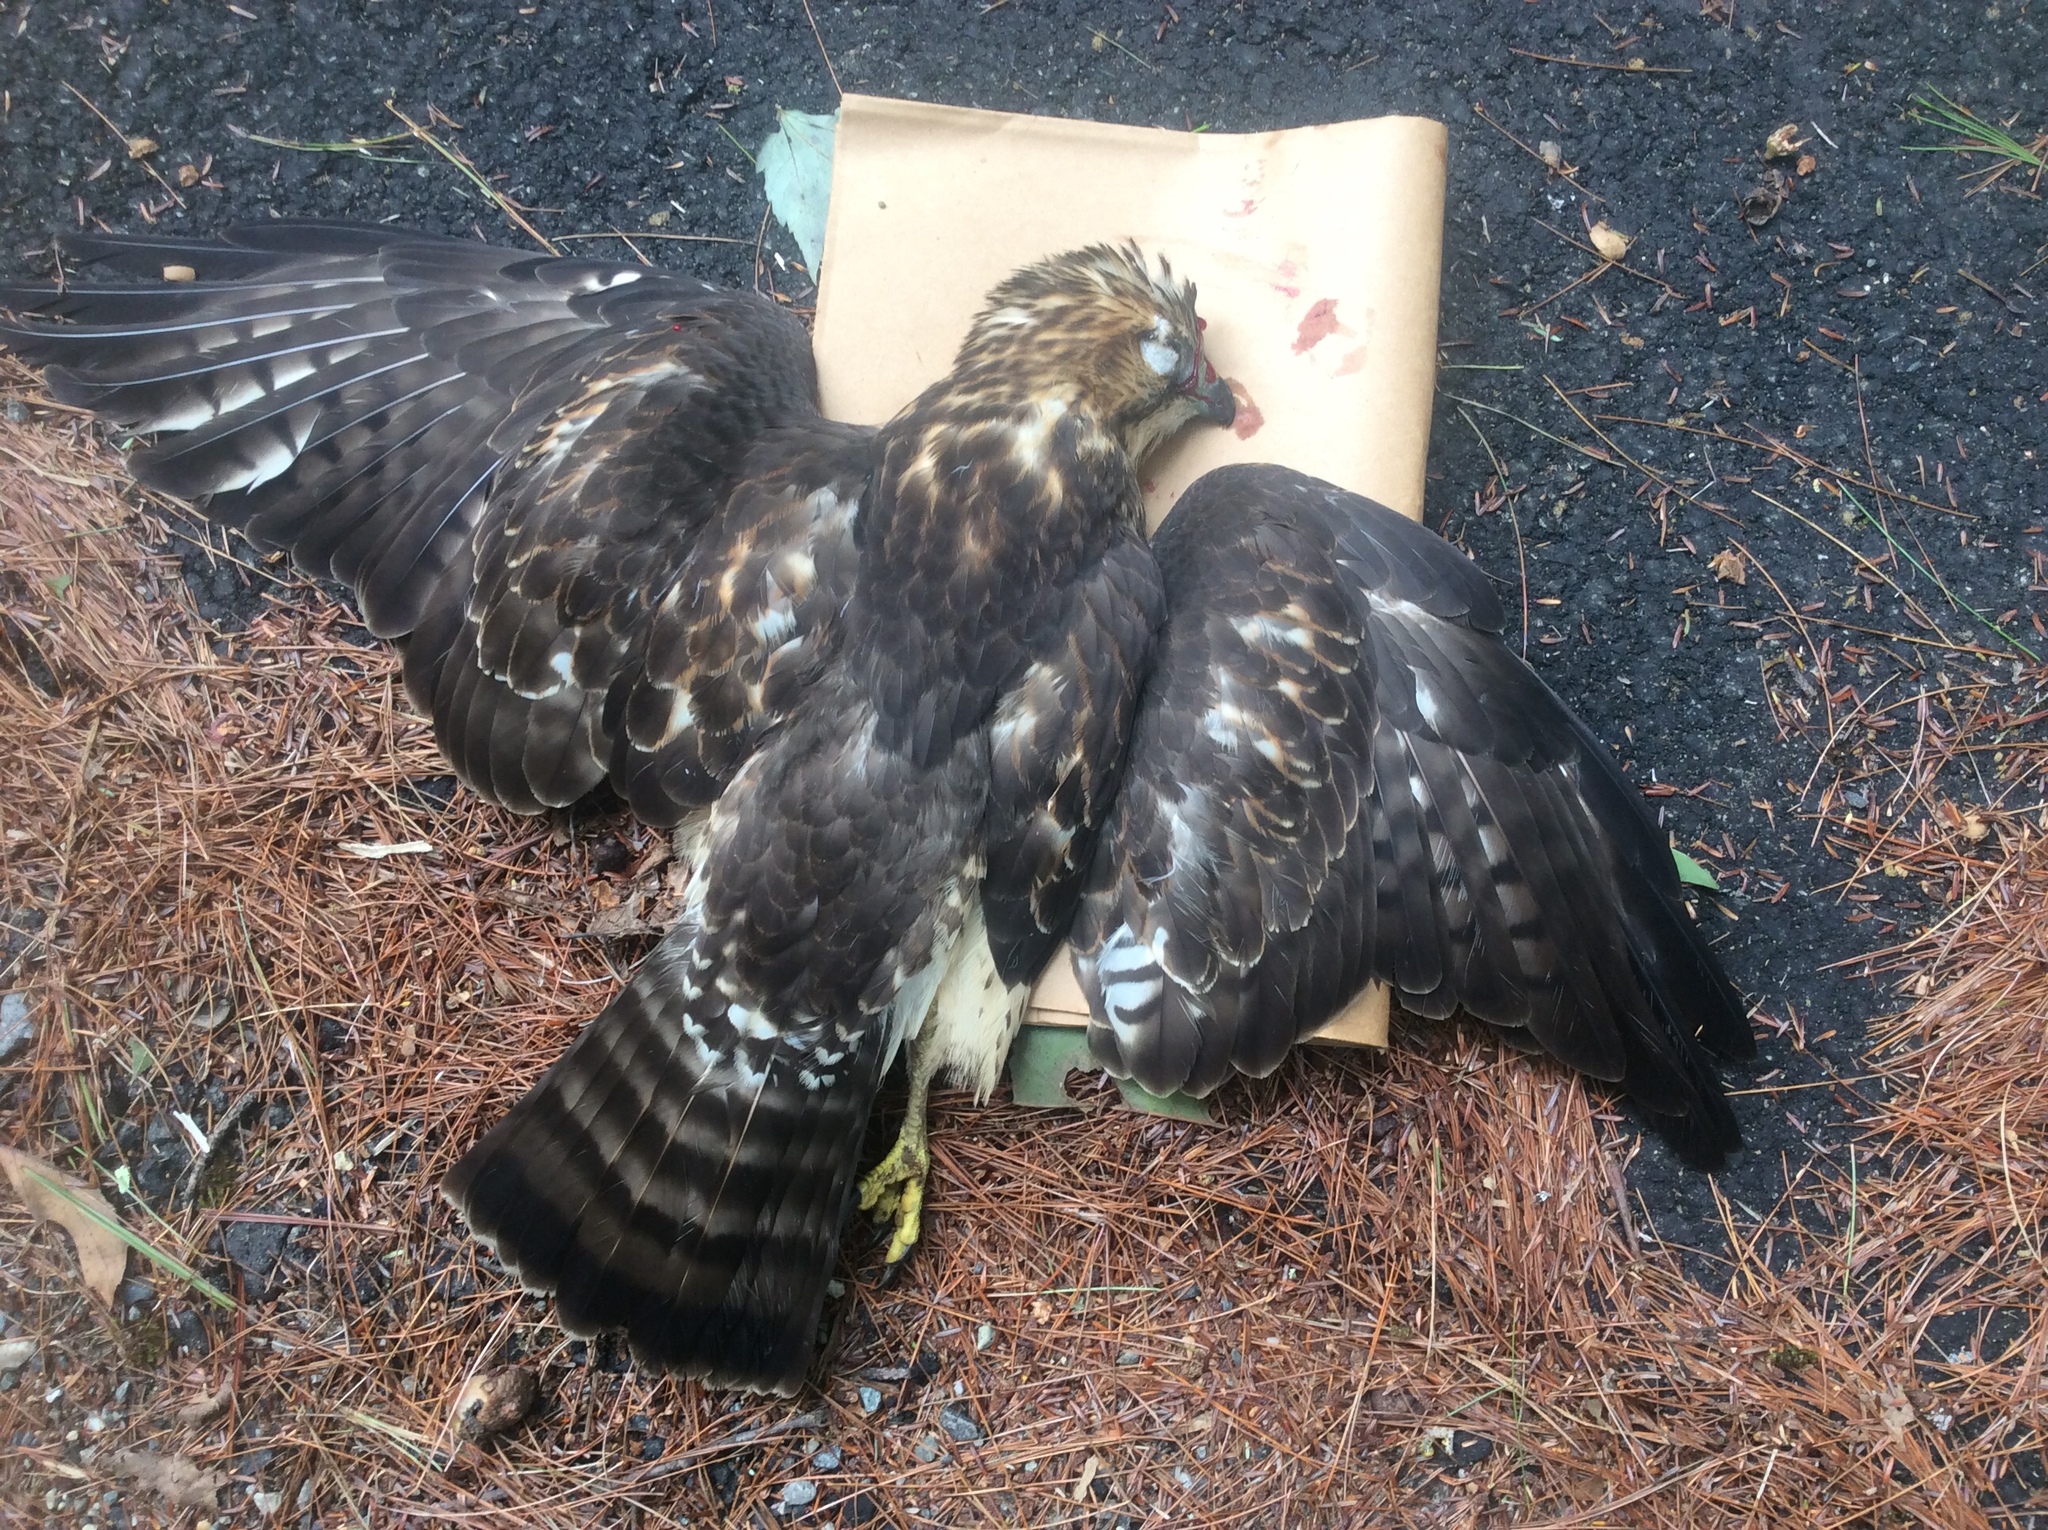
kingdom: Animalia
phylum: Chordata
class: Aves
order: Accipitriformes
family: Accipitridae
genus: Buteo
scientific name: Buteo platypterus
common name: Broad-winged hawk
